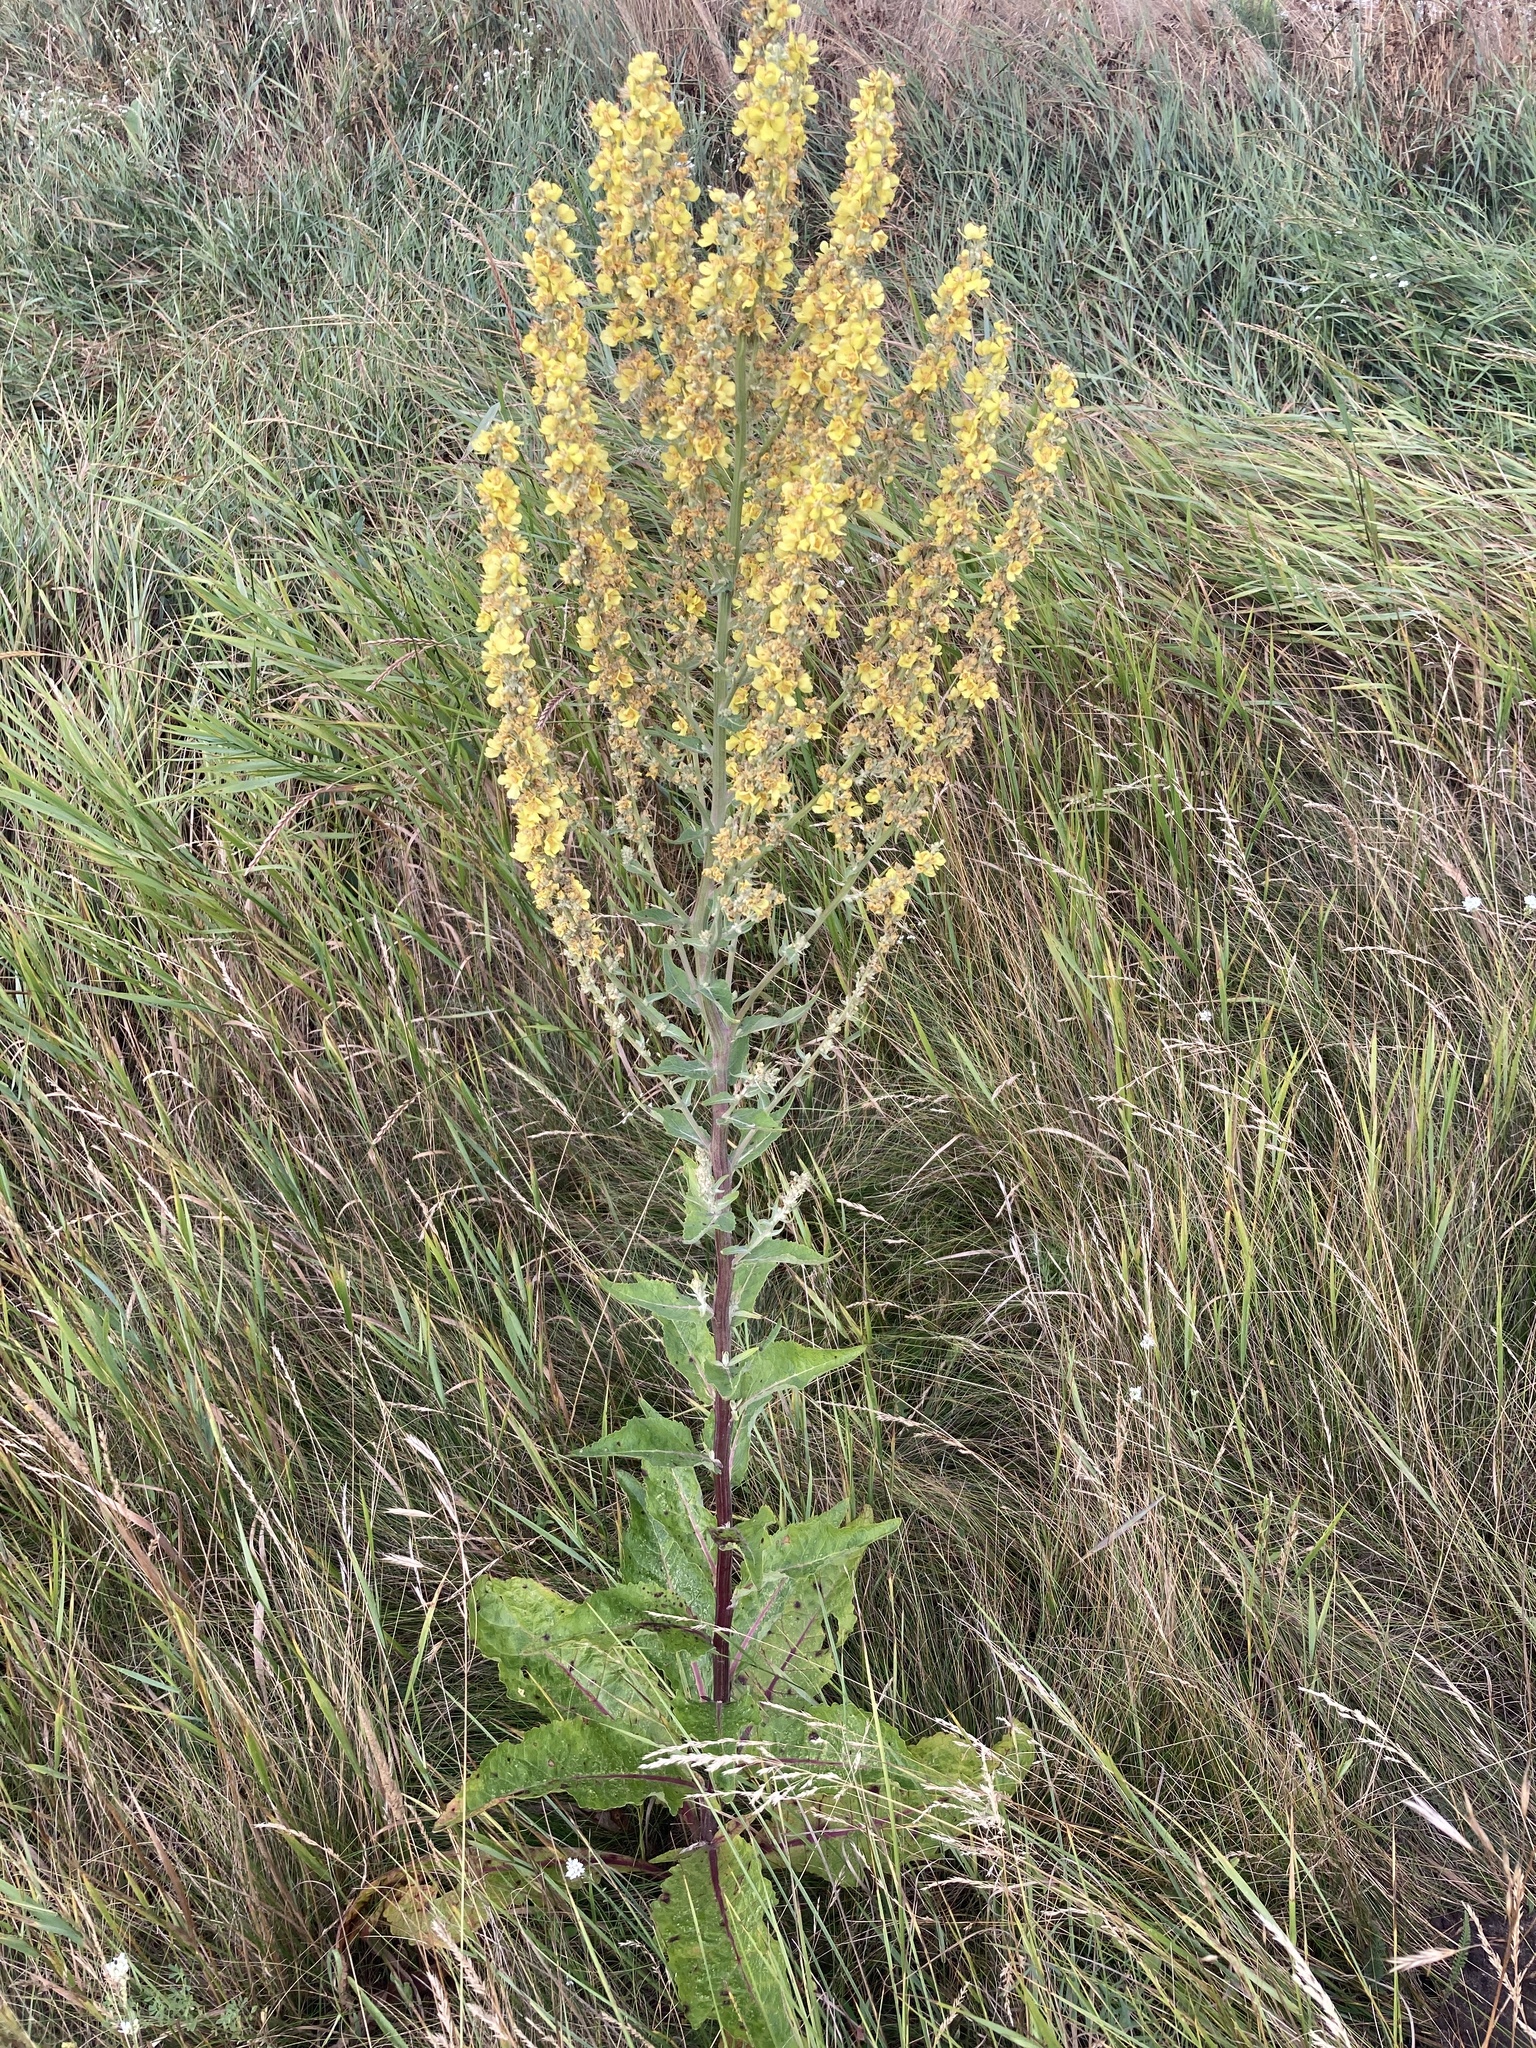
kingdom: Plantae
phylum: Tracheophyta
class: Magnoliopsida
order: Lamiales
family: Scrophulariaceae
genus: Verbascum
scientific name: Verbascum lychnitis
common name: White mullein
